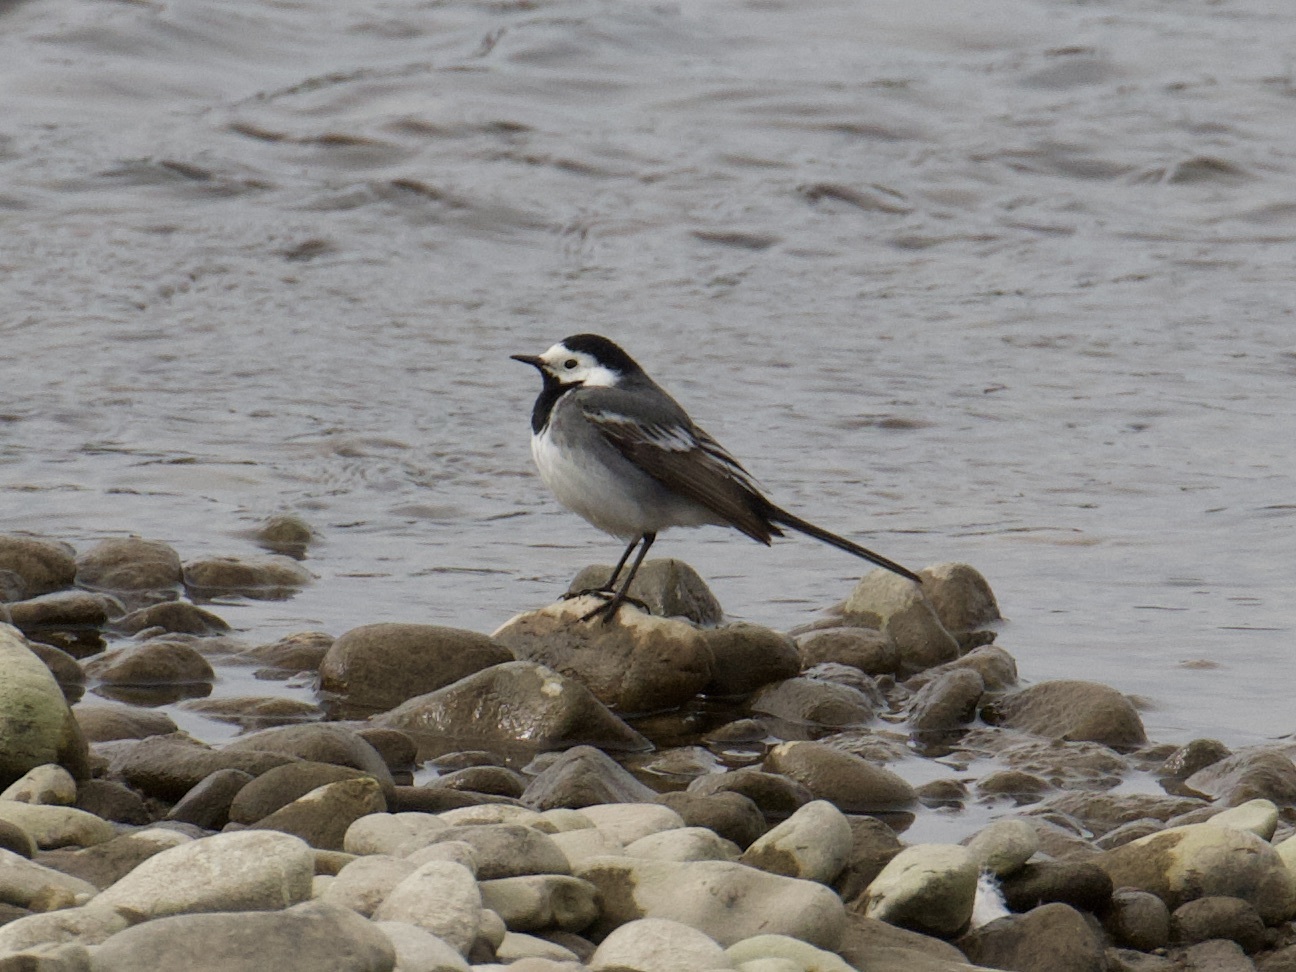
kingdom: Animalia
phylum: Chordata
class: Aves
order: Passeriformes
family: Motacillidae
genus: Motacilla
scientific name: Motacilla alba
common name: White wagtail
